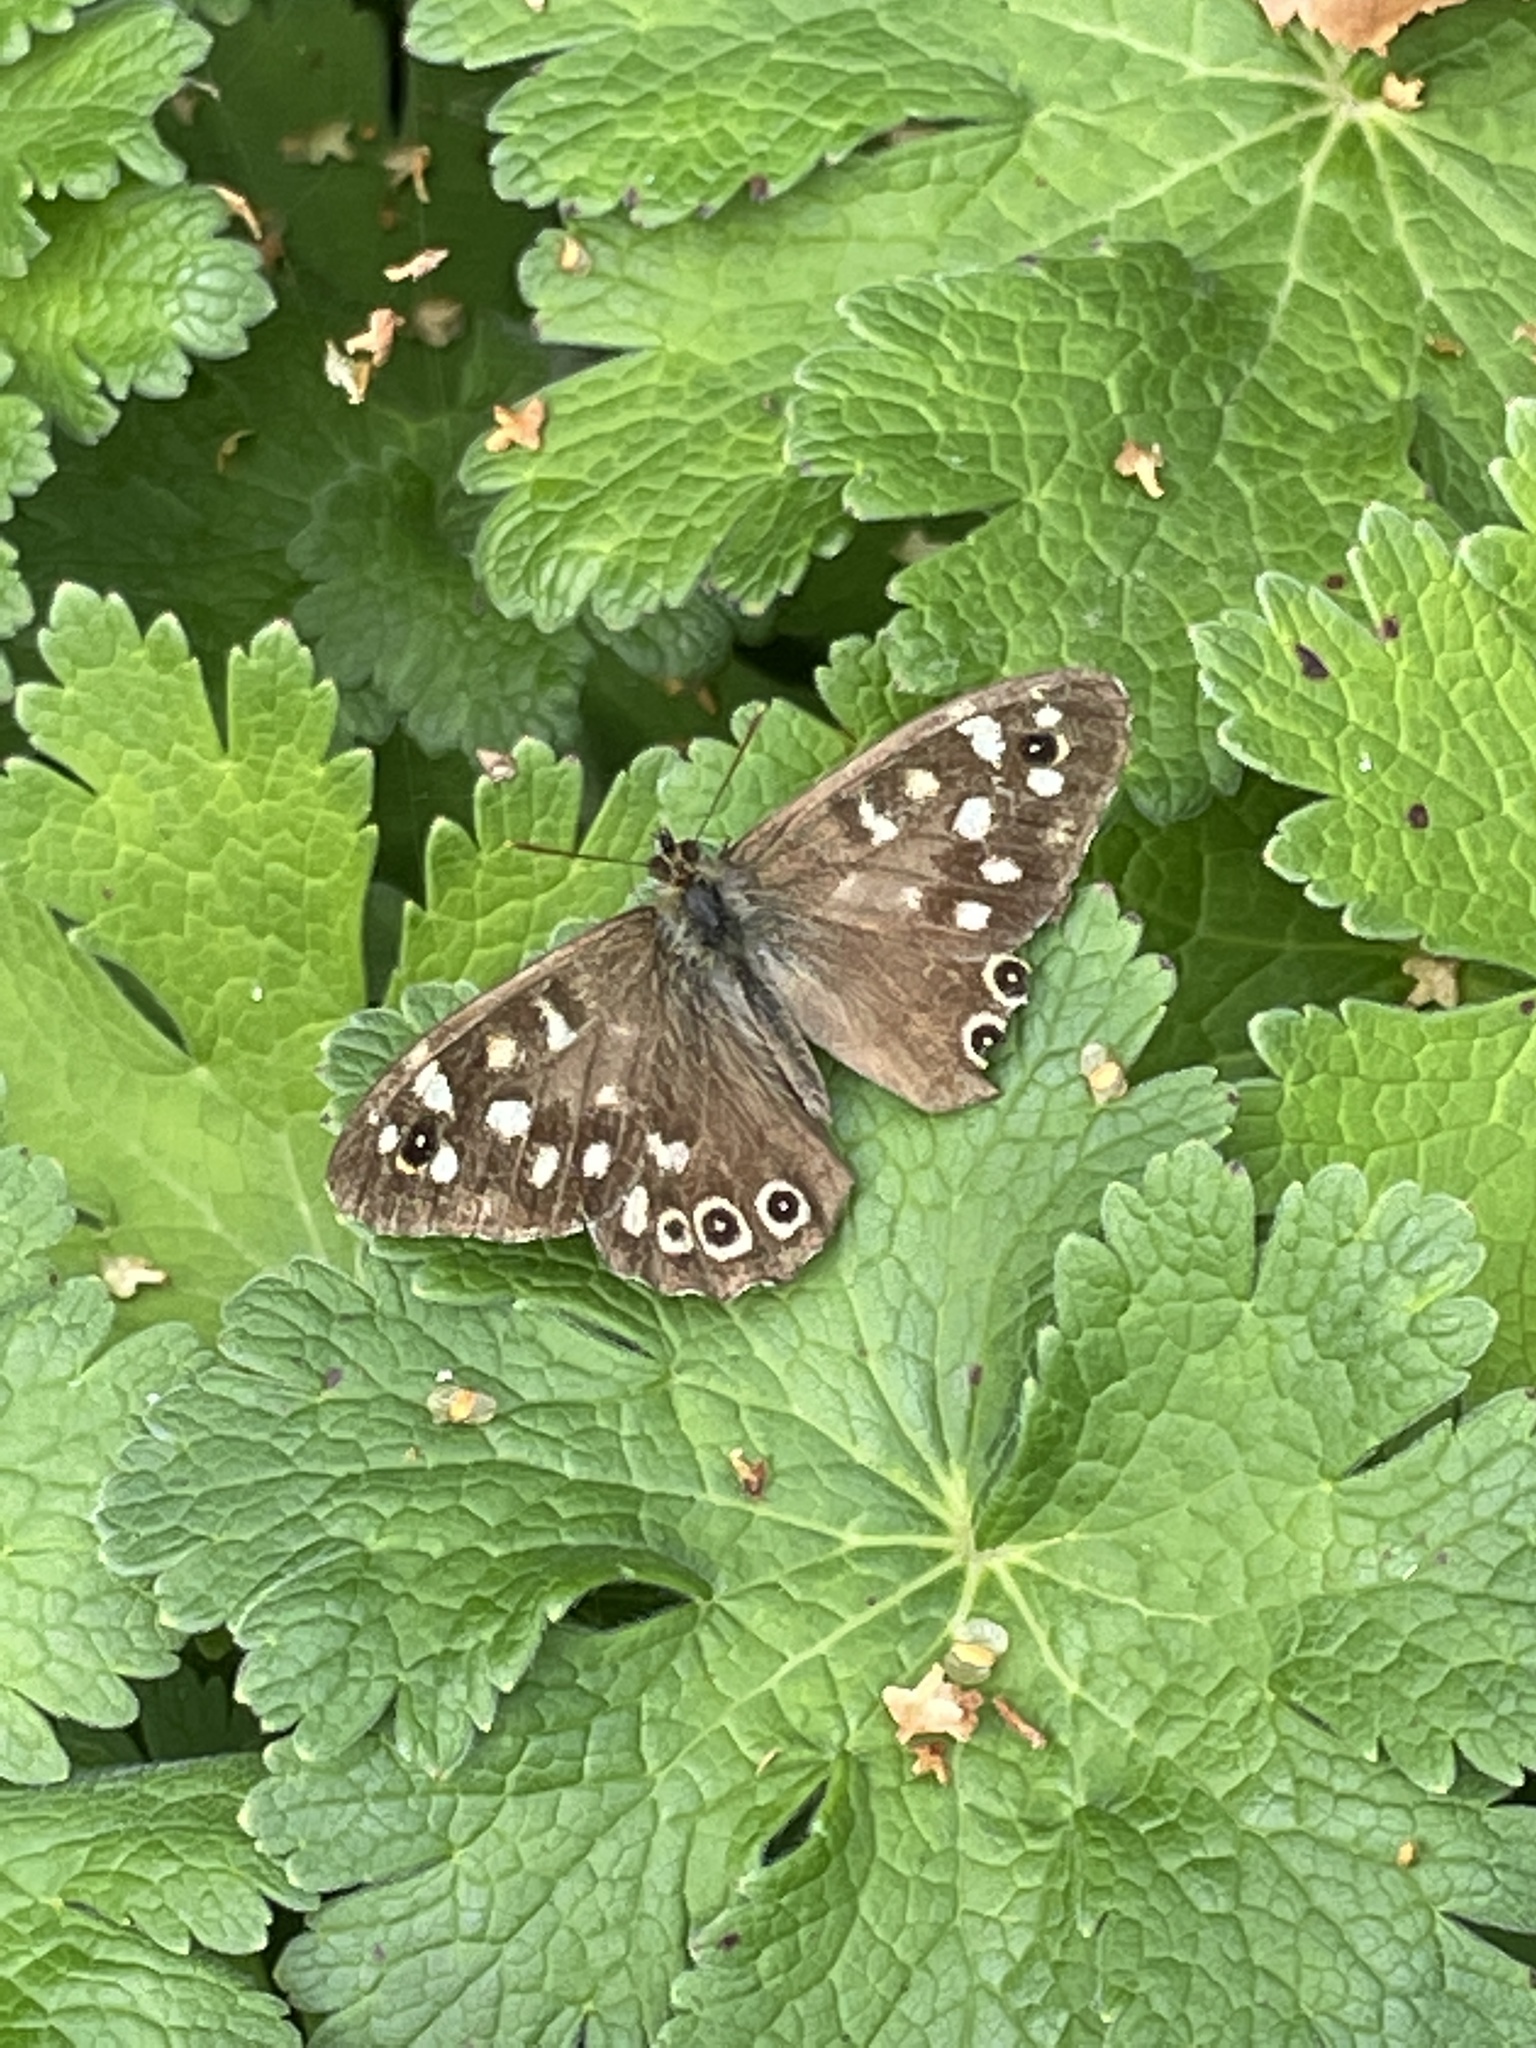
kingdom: Animalia
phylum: Arthropoda
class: Insecta
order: Lepidoptera
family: Nymphalidae
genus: Pararge
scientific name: Pararge aegeria
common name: Speckled wood
